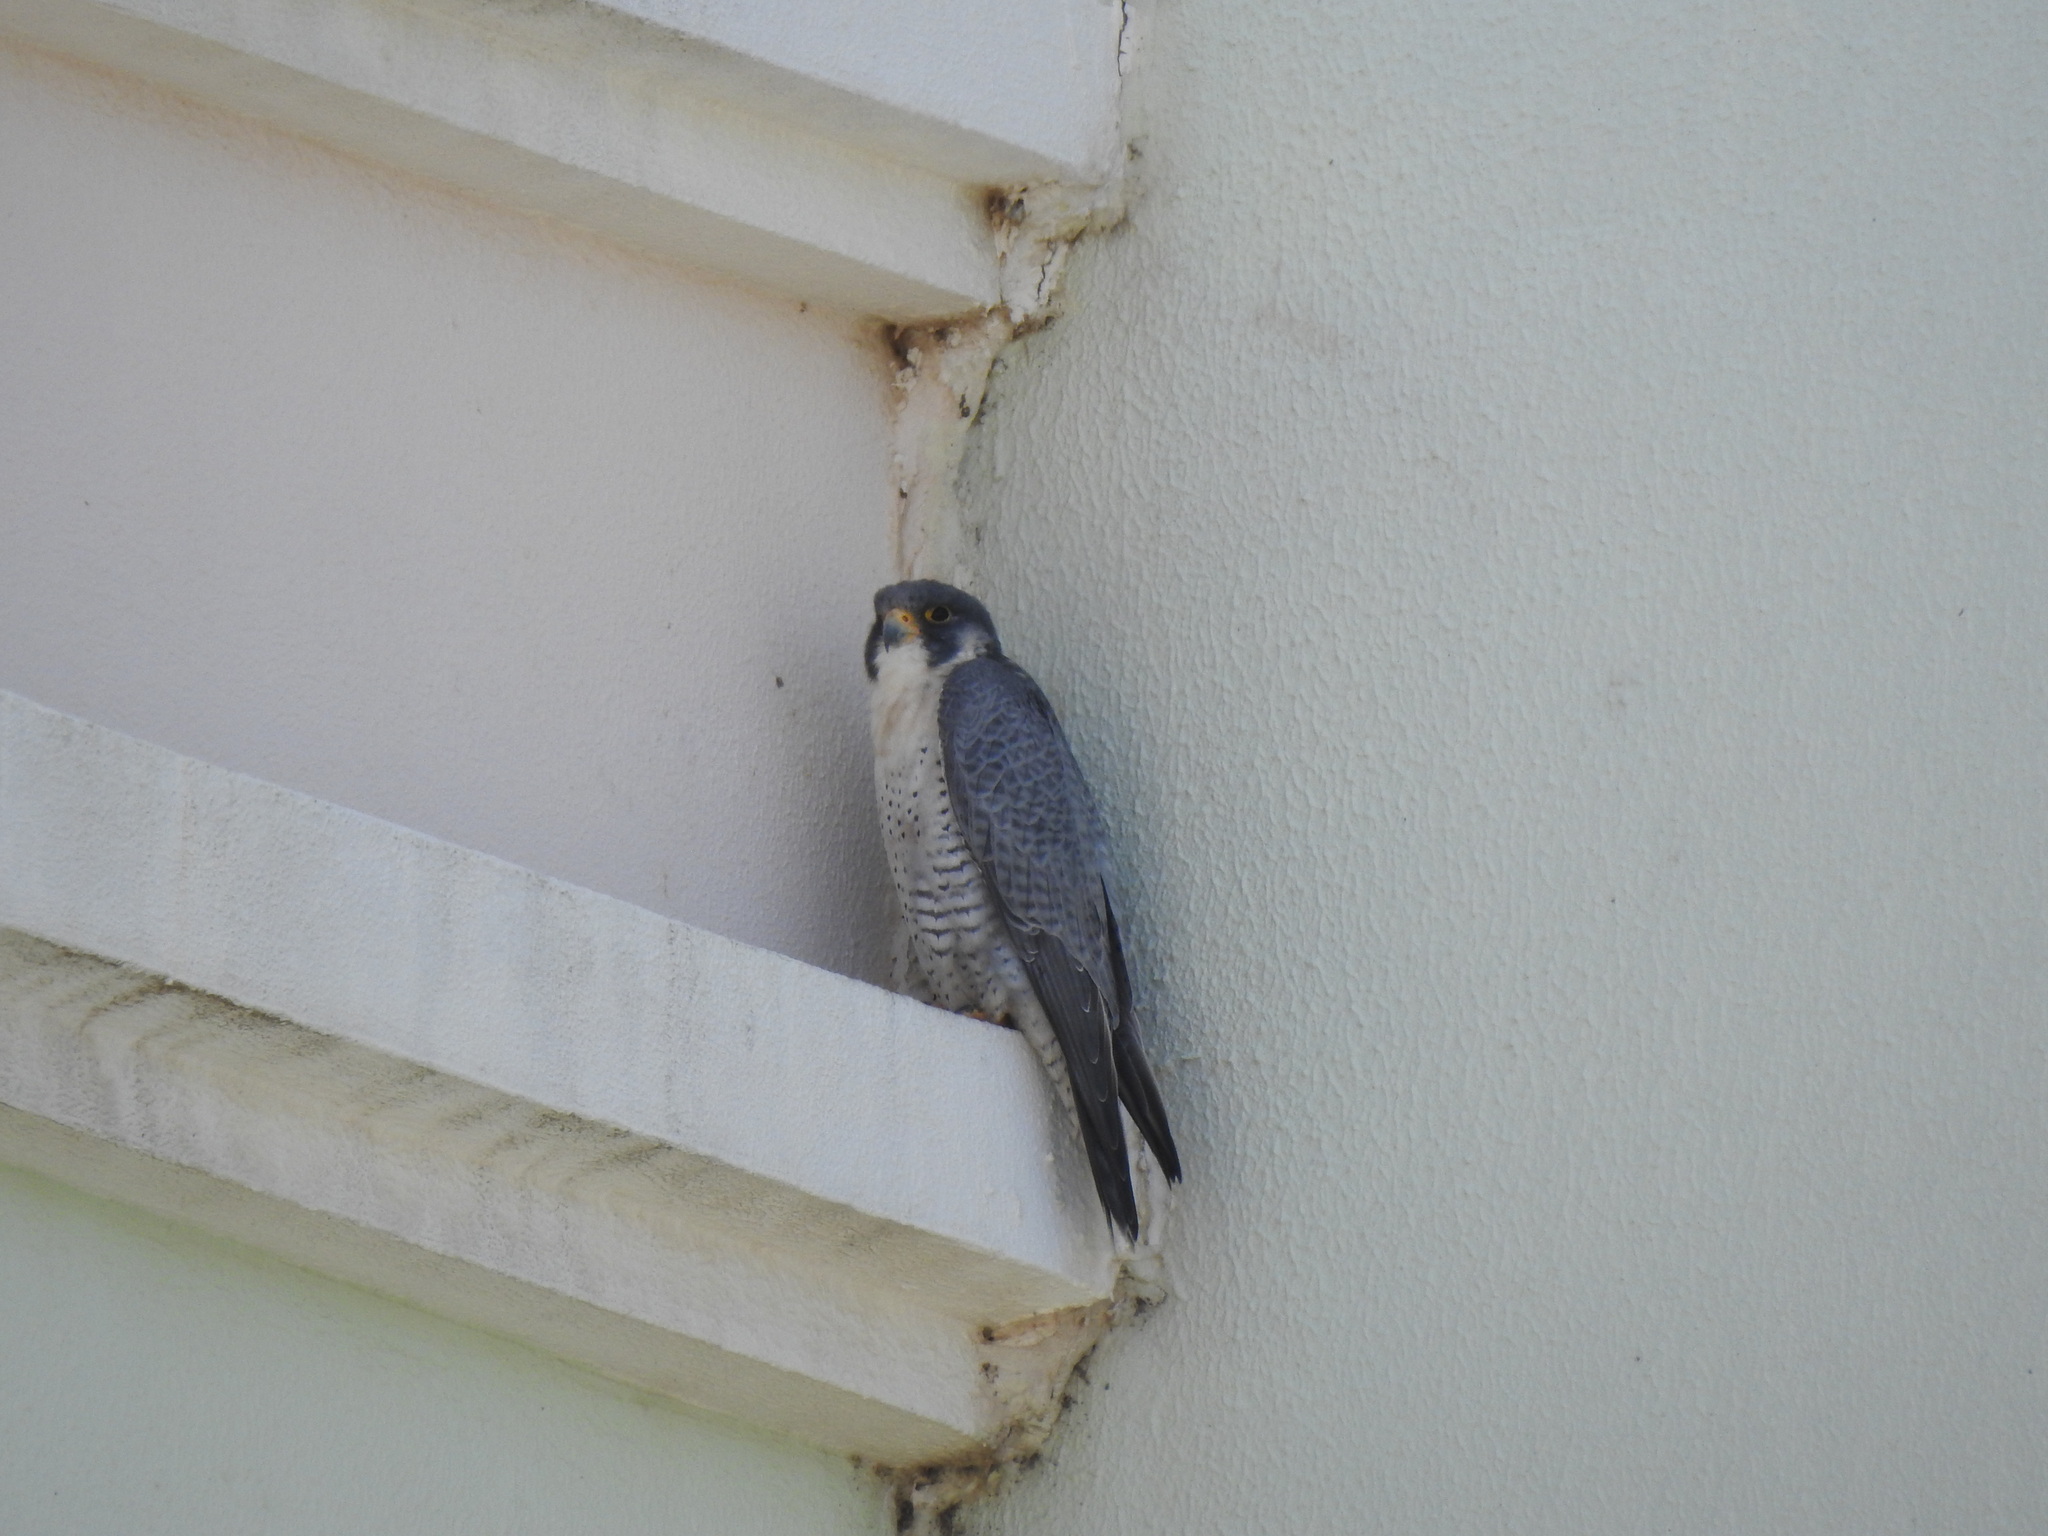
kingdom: Animalia
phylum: Chordata
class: Aves
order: Falconiformes
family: Falconidae
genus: Falco
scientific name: Falco peregrinus
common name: Peregrine falcon
